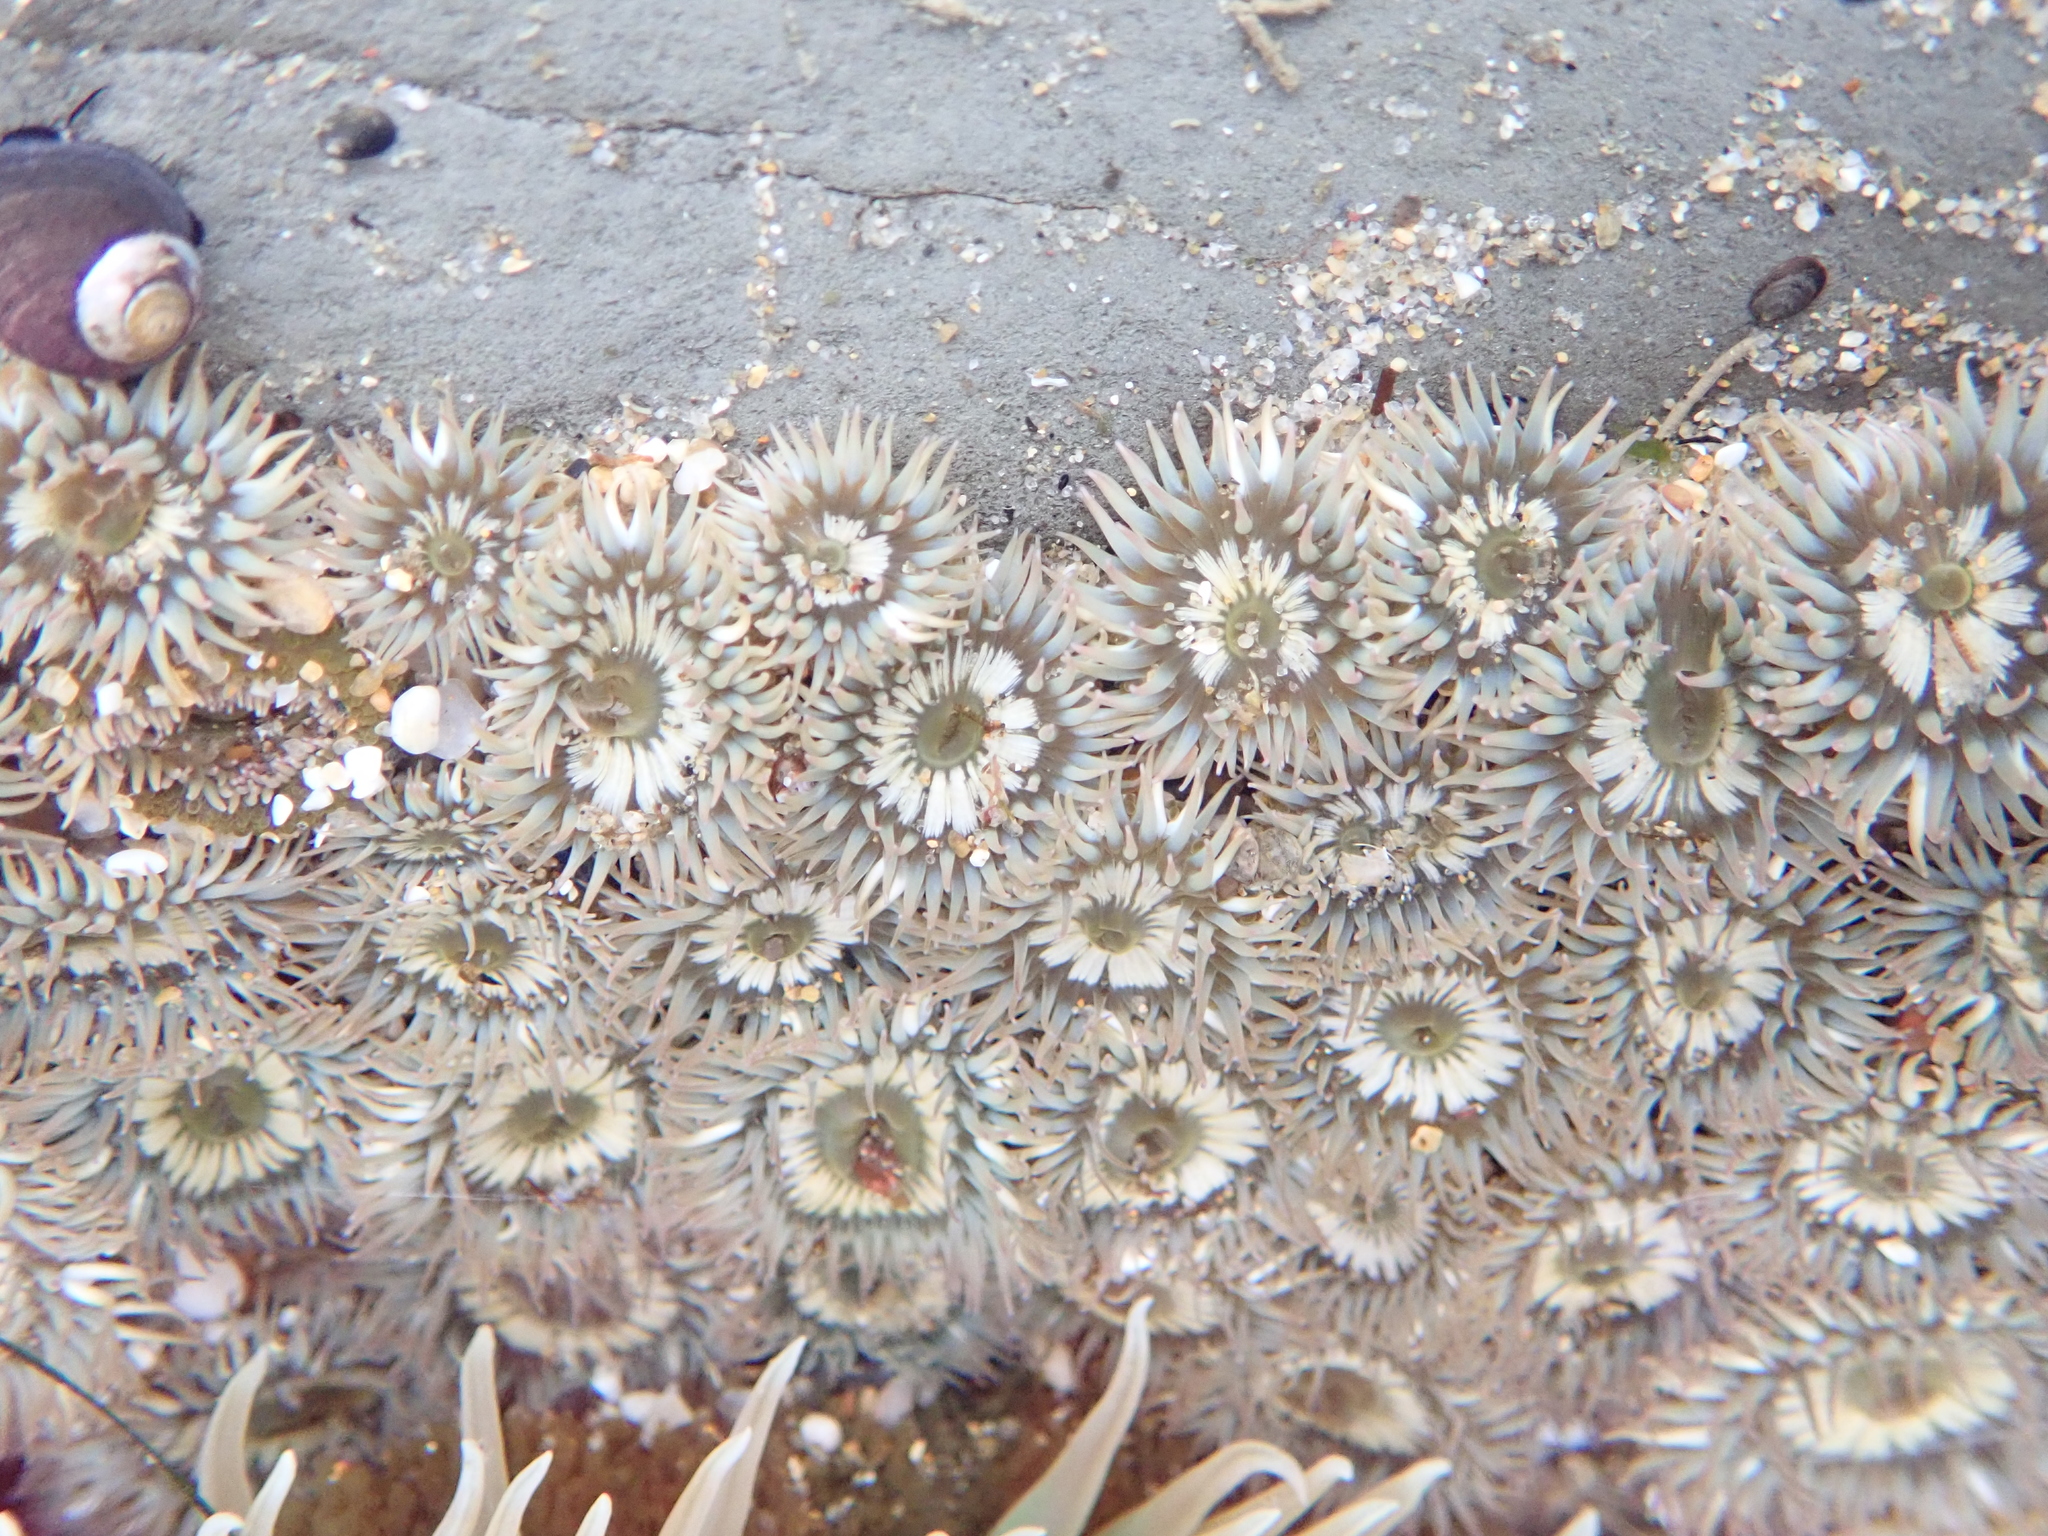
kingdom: Animalia
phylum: Cnidaria
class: Anthozoa
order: Actiniaria
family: Actiniidae
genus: Anthopleura
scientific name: Anthopleura elegantissima
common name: Clonal anemone
